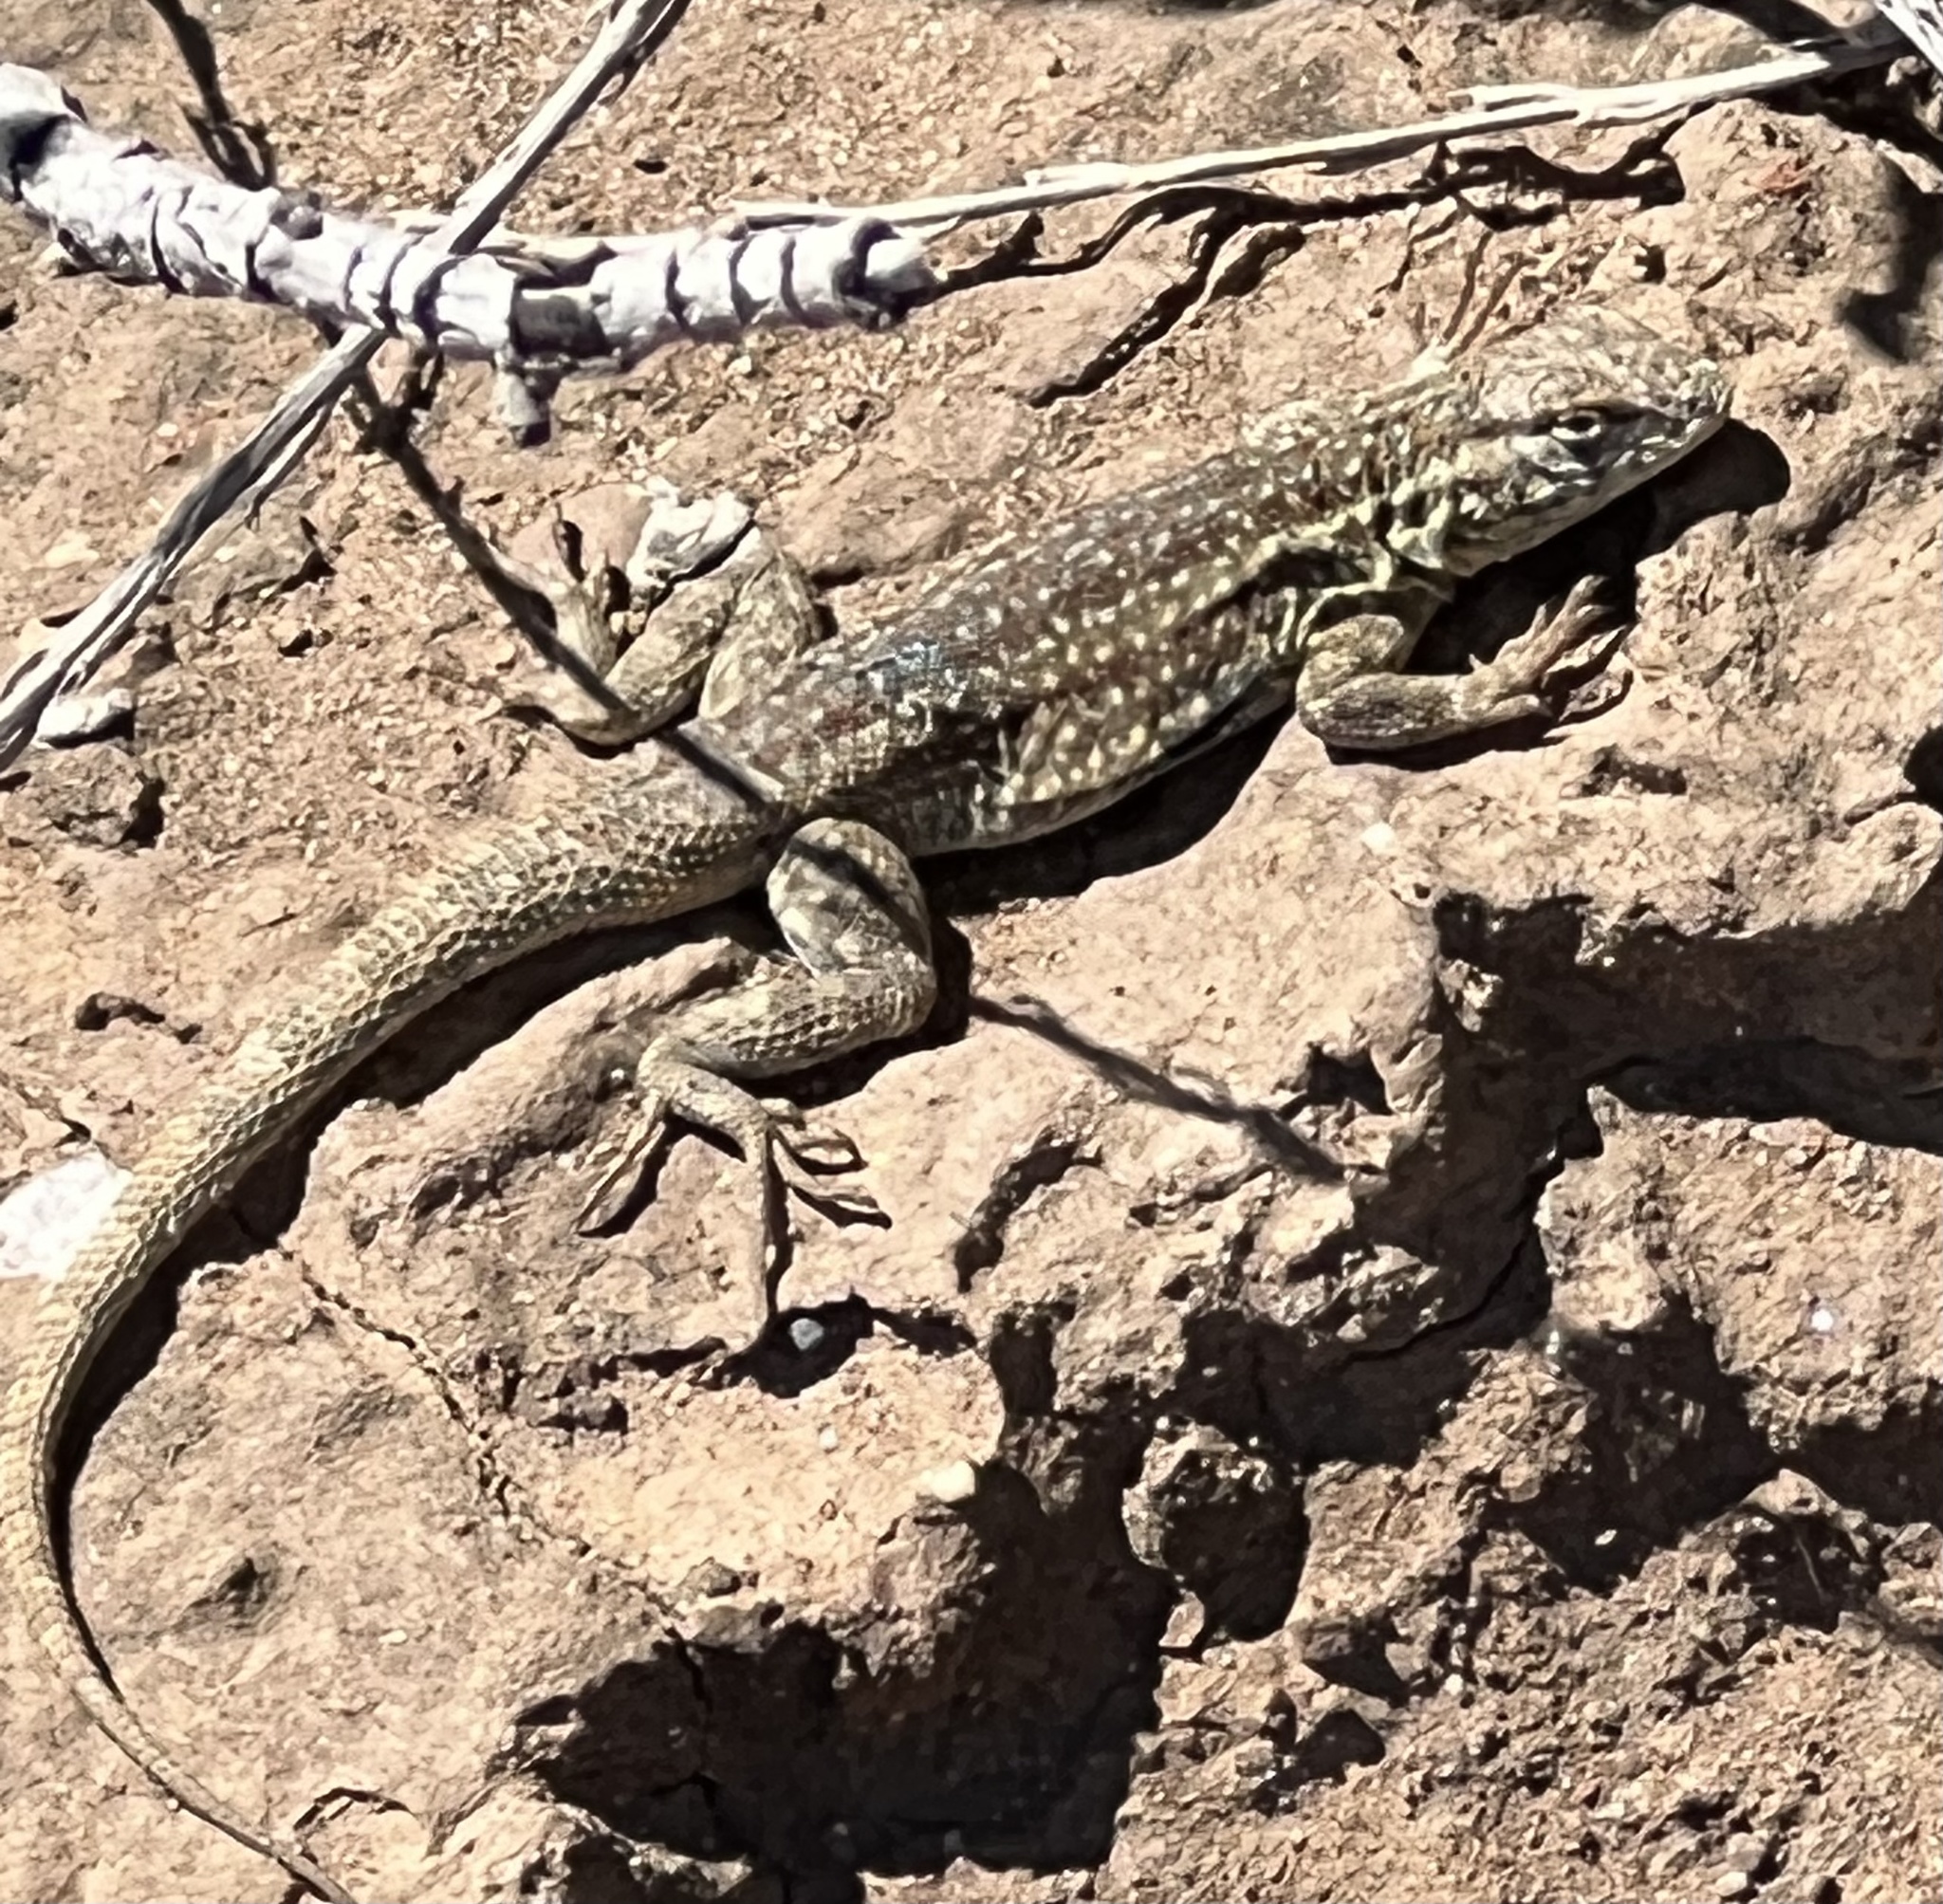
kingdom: Animalia
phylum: Chordata
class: Squamata
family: Phrynosomatidae
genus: Uta
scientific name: Uta stansburiana
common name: Side-blotched lizard
